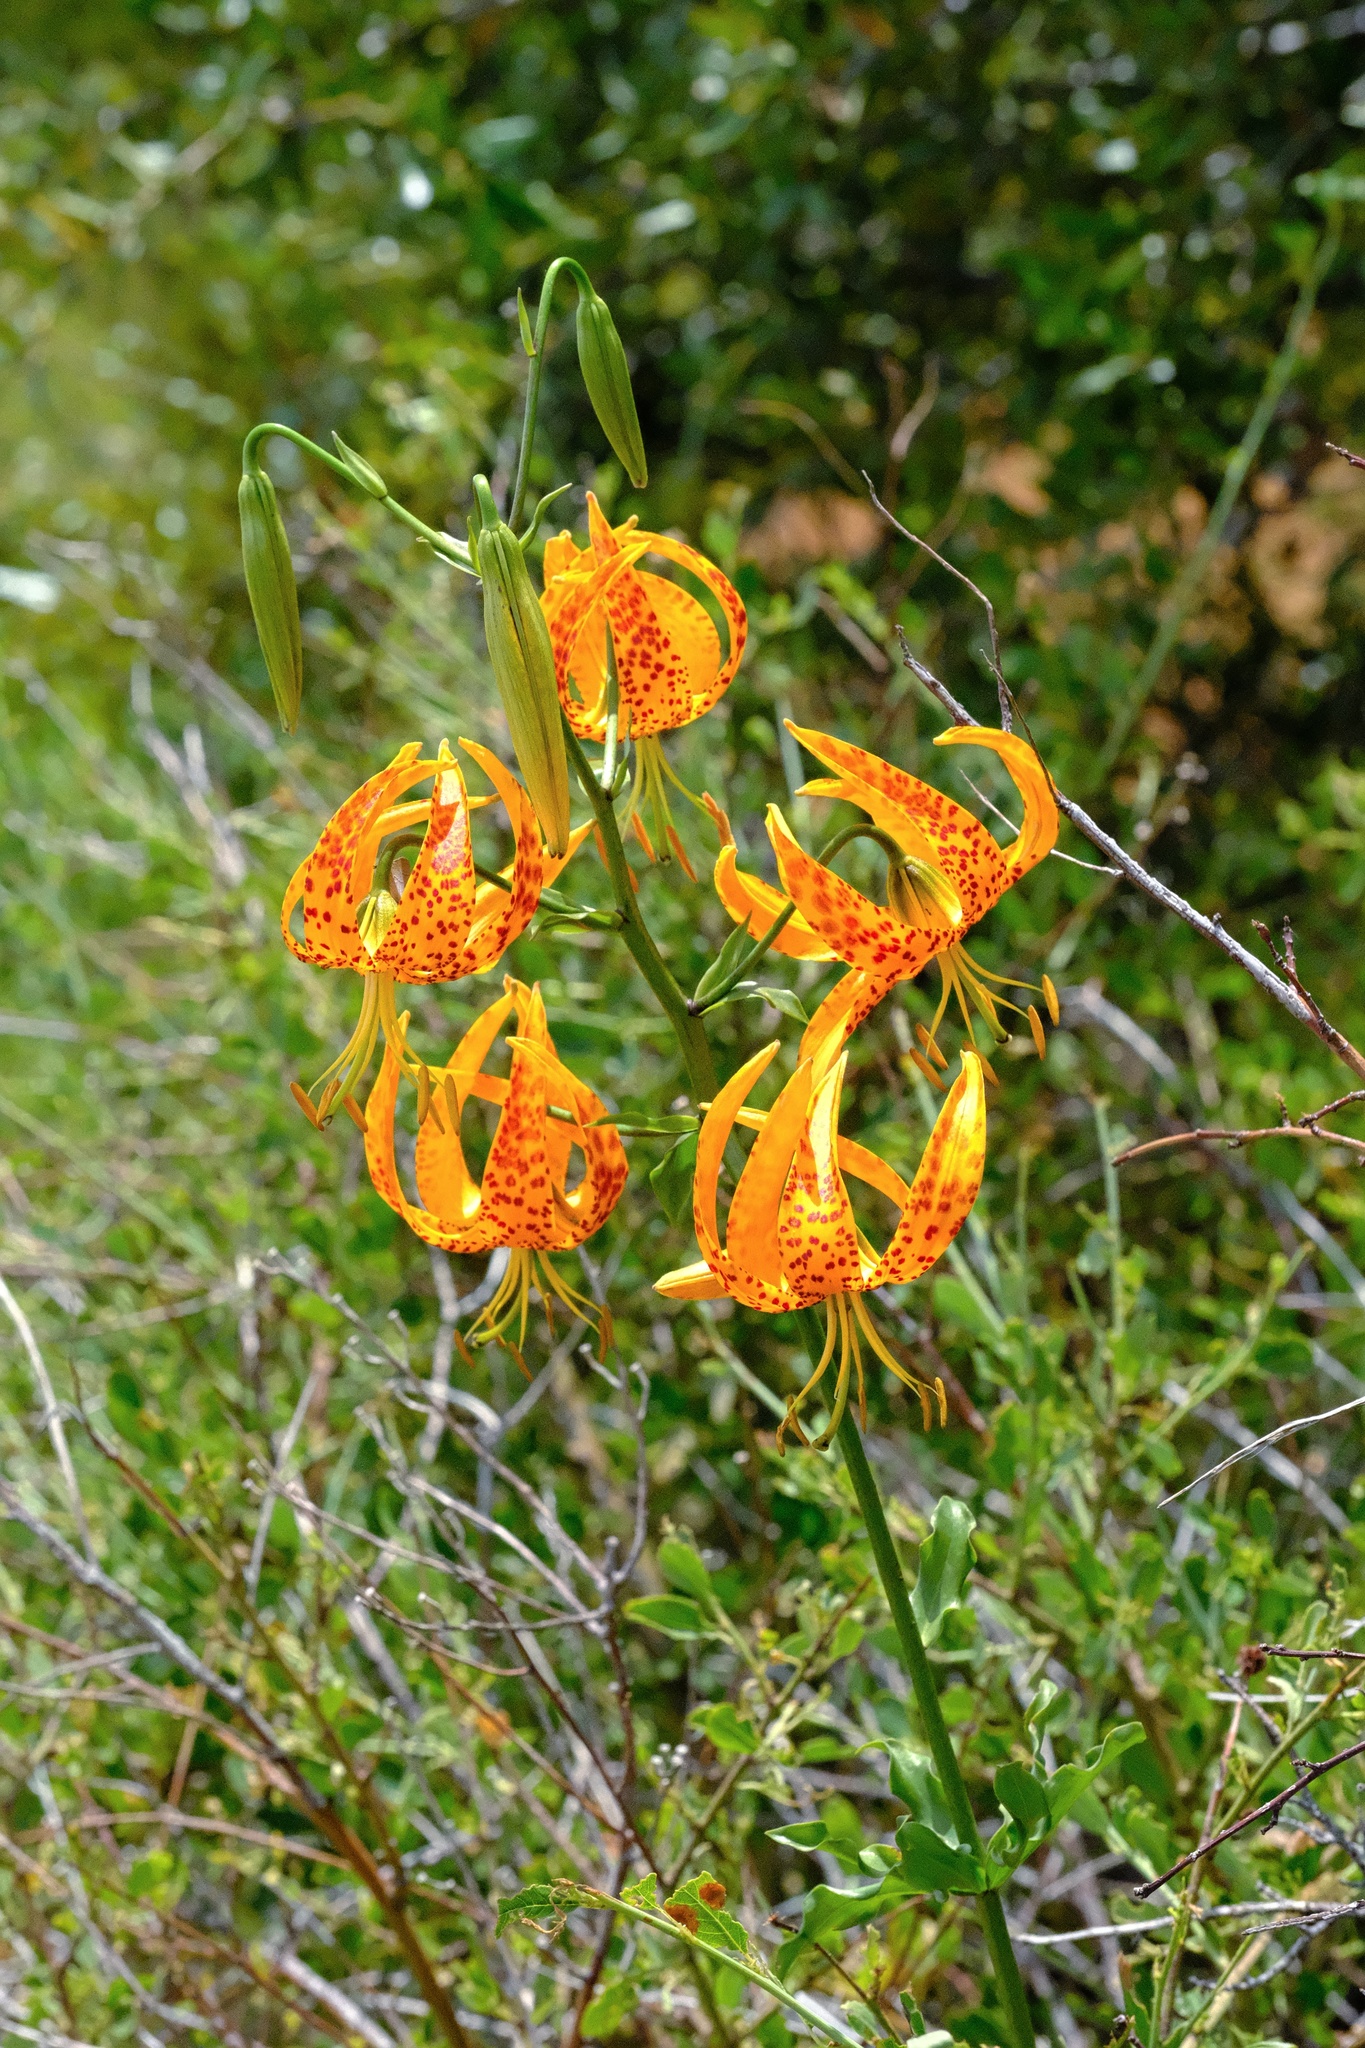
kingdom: Plantae
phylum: Tracheophyta
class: Liliopsida
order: Liliales
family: Liliaceae
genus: Lilium
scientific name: Lilium humboldtii
